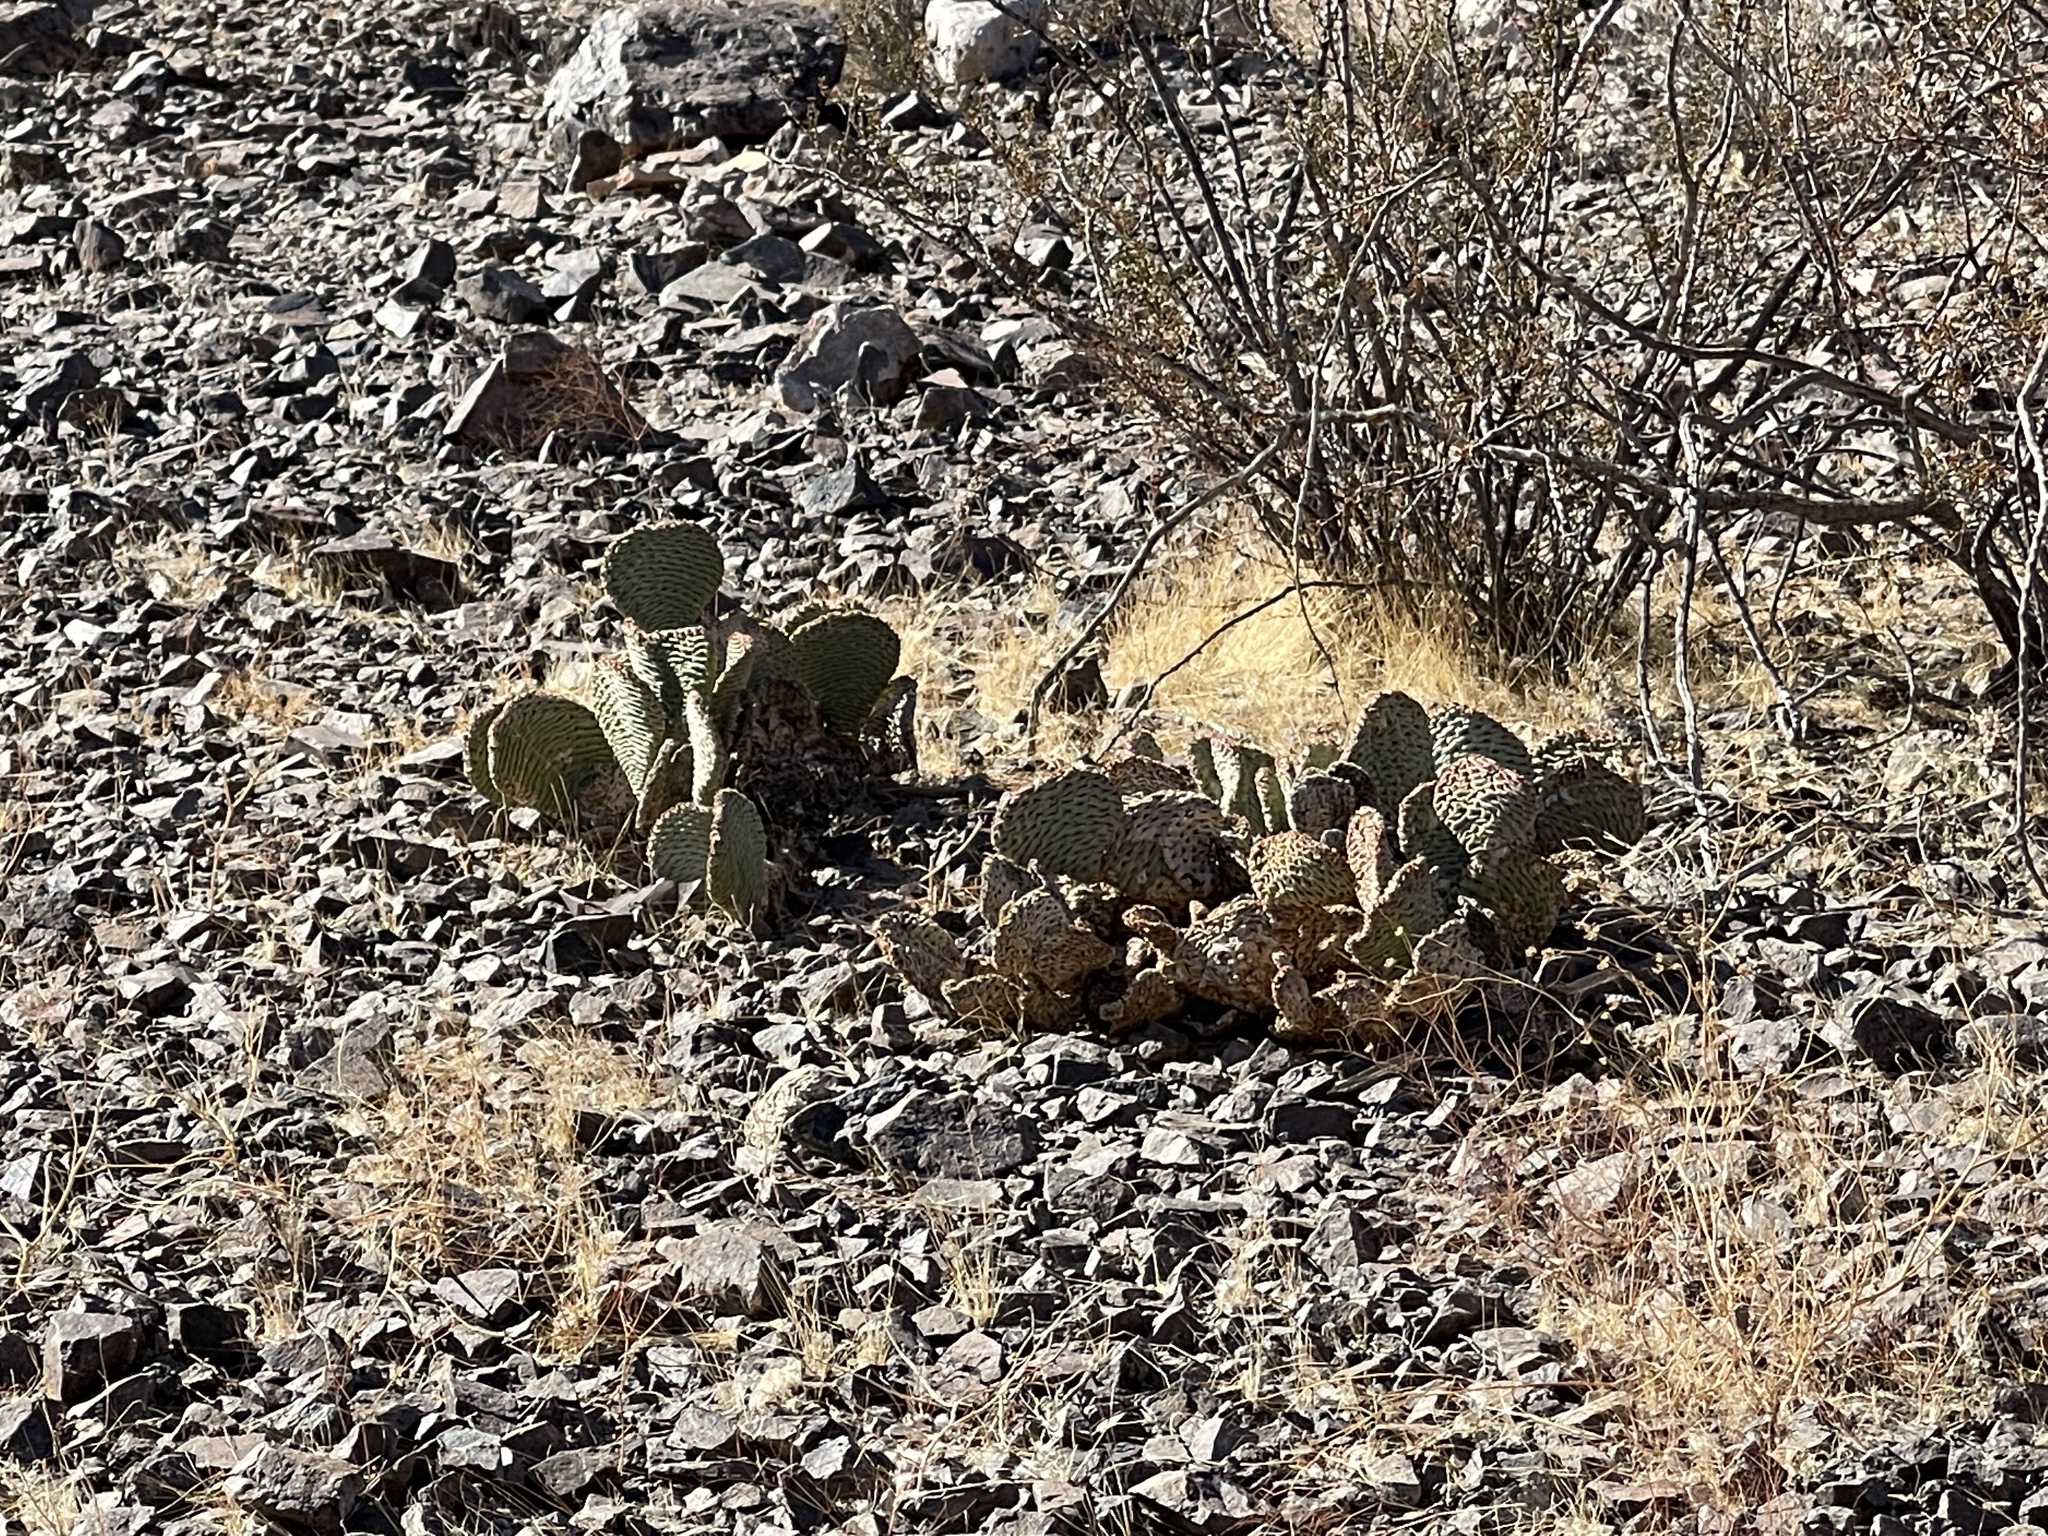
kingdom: Plantae
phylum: Tracheophyta
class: Magnoliopsida
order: Caryophyllales
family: Cactaceae
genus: Opuntia
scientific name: Opuntia basilaris
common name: Beavertail prickly-pear
